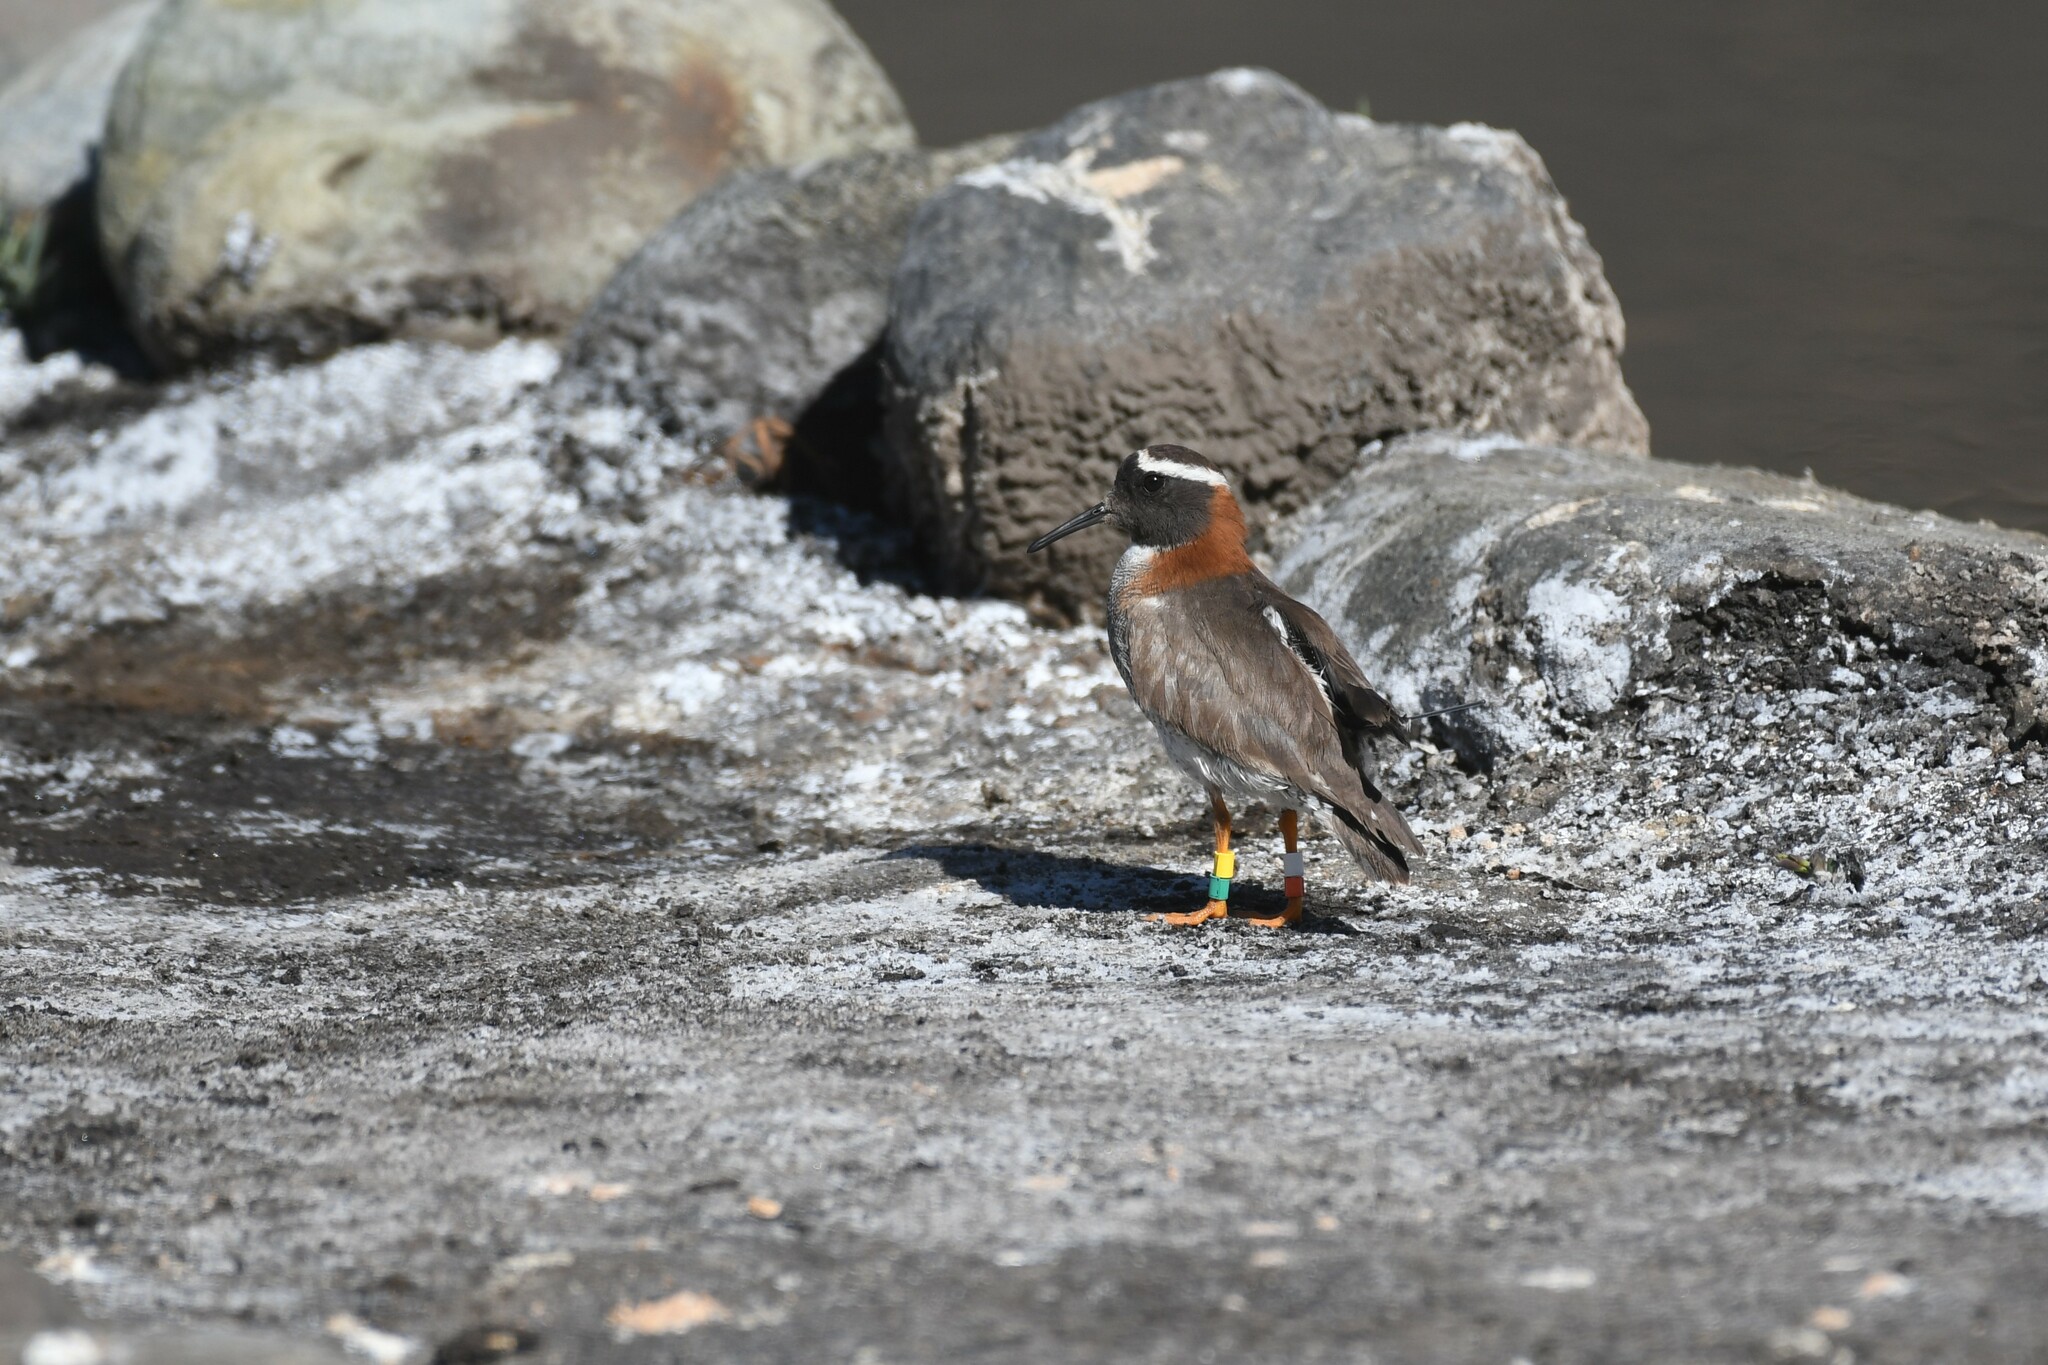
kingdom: Animalia
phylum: Chordata
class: Aves
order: Charadriiformes
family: Charadriidae
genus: Phegornis
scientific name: Phegornis mitchellii
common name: Diademed sandpiper-plover
